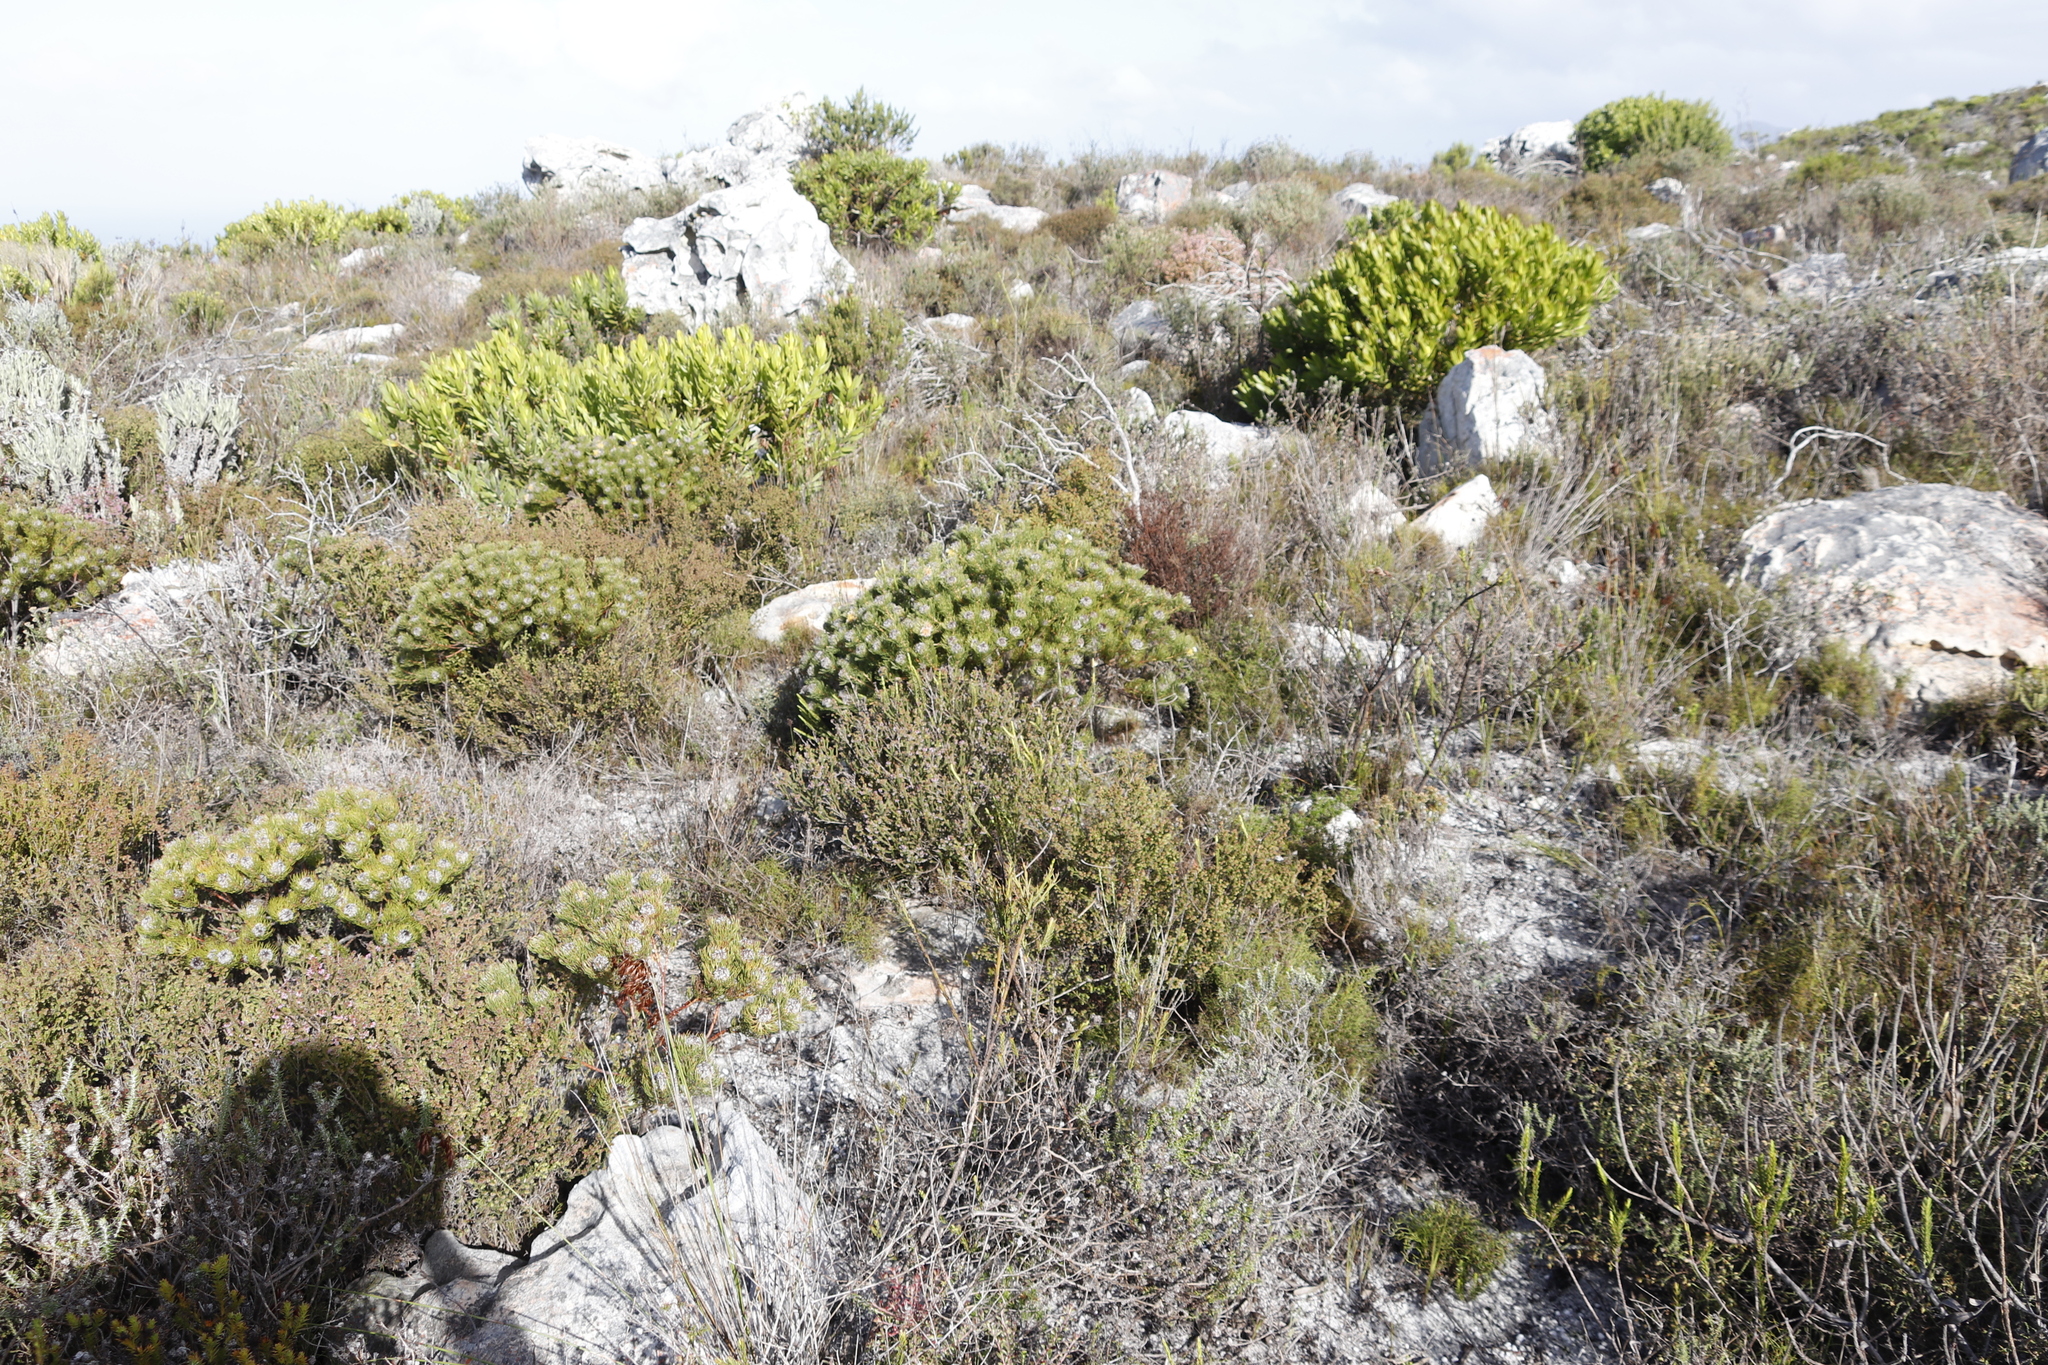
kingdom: Plantae
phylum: Tracheophyta
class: Magnoliopsida
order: Proteales
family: Proteaceae
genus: Serruria
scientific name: Serruria villosa
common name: Golden spiderhead
